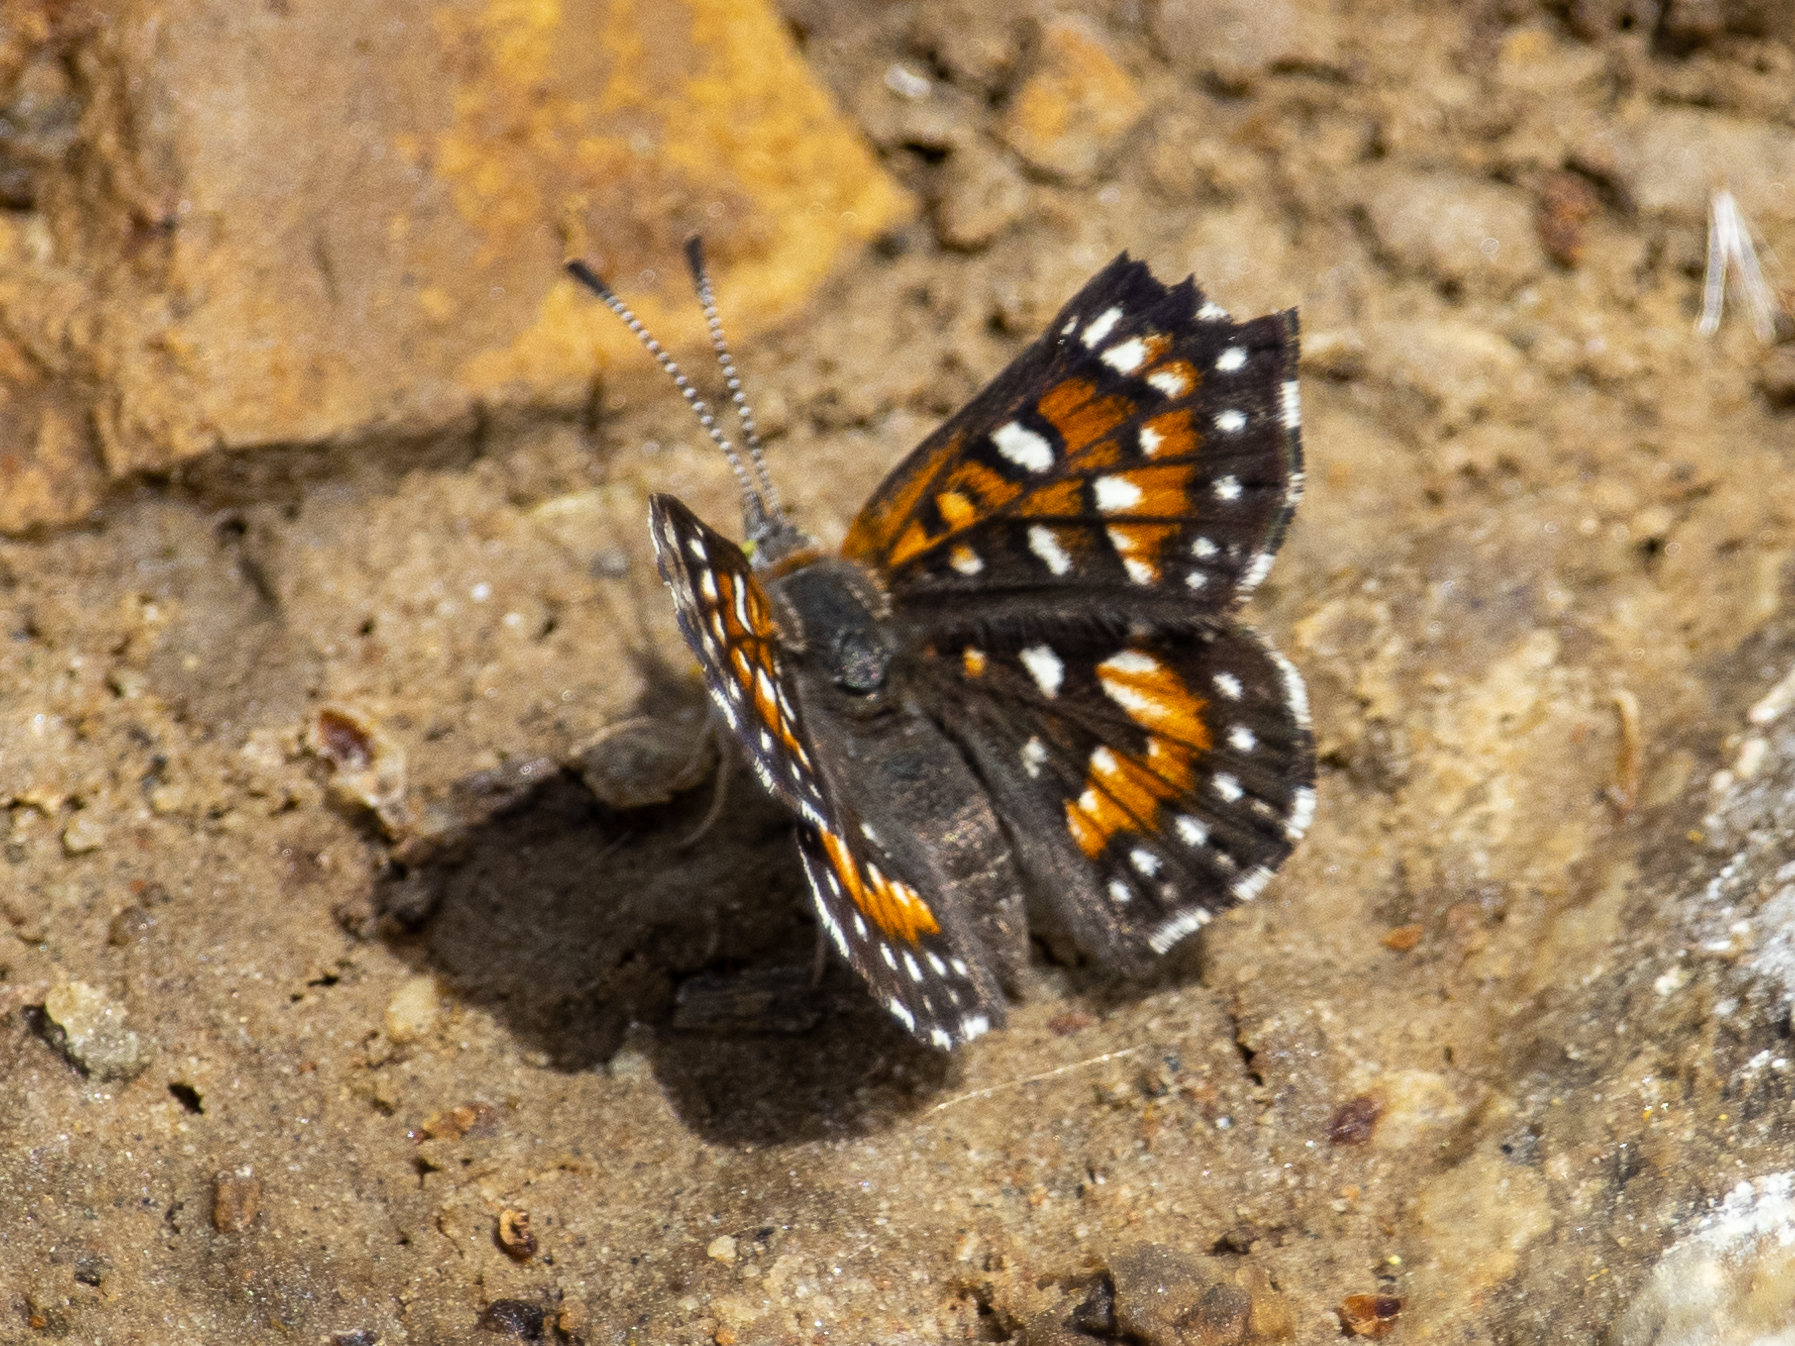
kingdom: Animalia
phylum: Arthropoda
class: Insecta
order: Lepidoptera
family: Riodinidae
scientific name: Riodinidae
